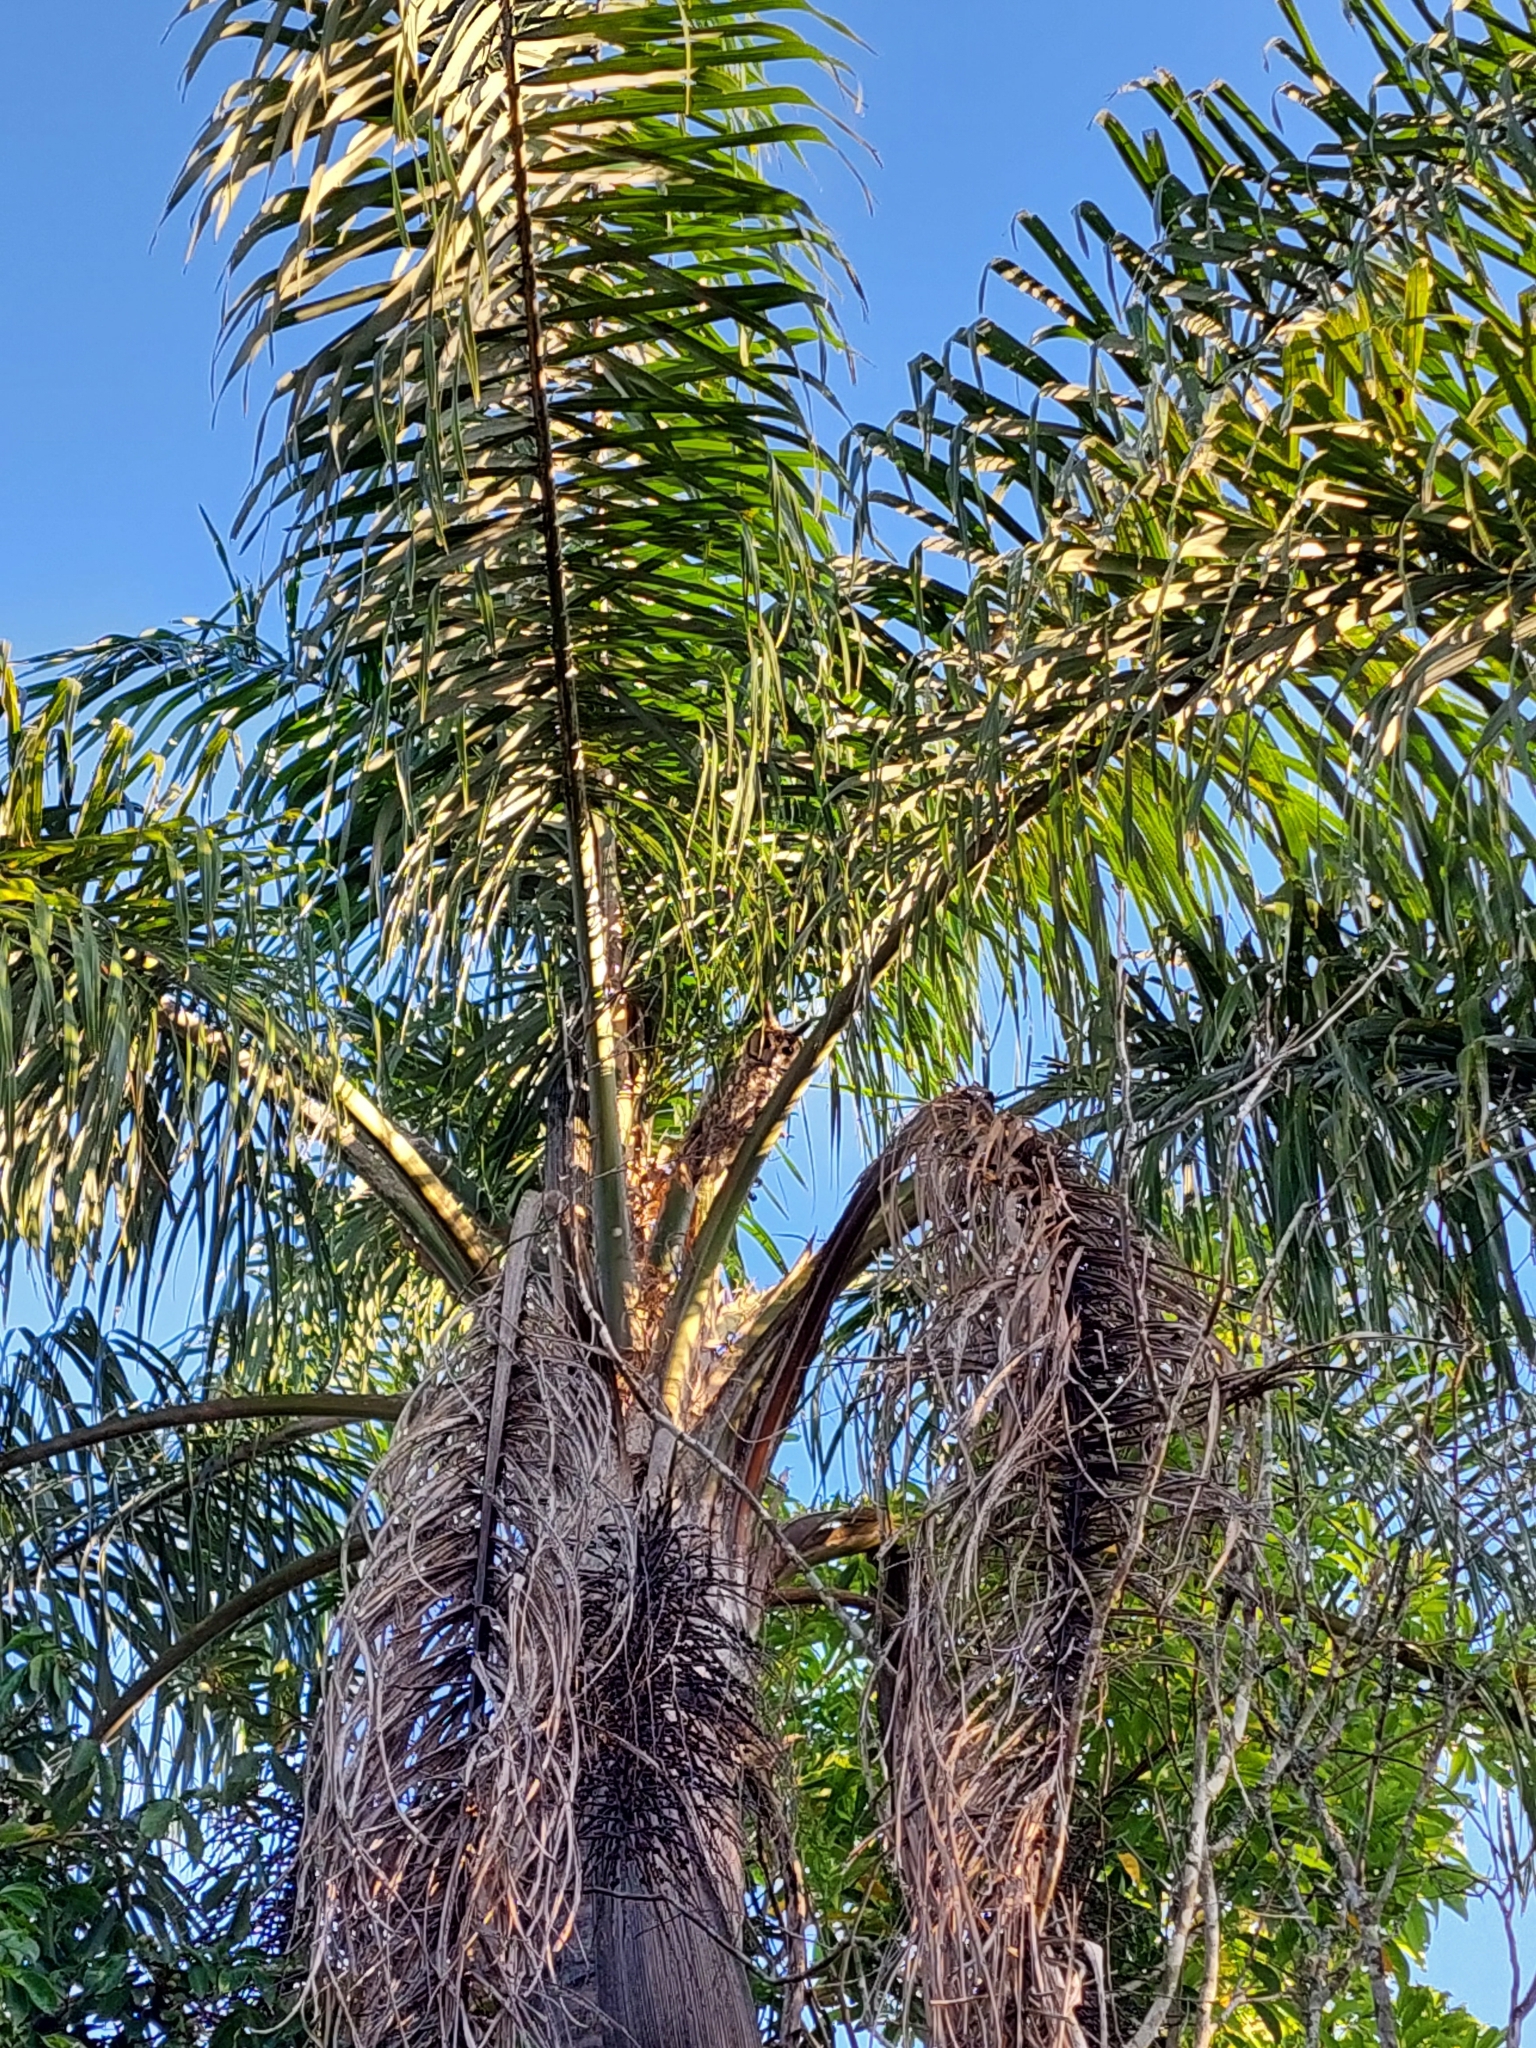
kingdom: Animalia
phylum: Chordata
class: Aves
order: Strigiformes
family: Strigidae
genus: Pseudoscops
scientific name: Pseudoscops clamator
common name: Striped owl
